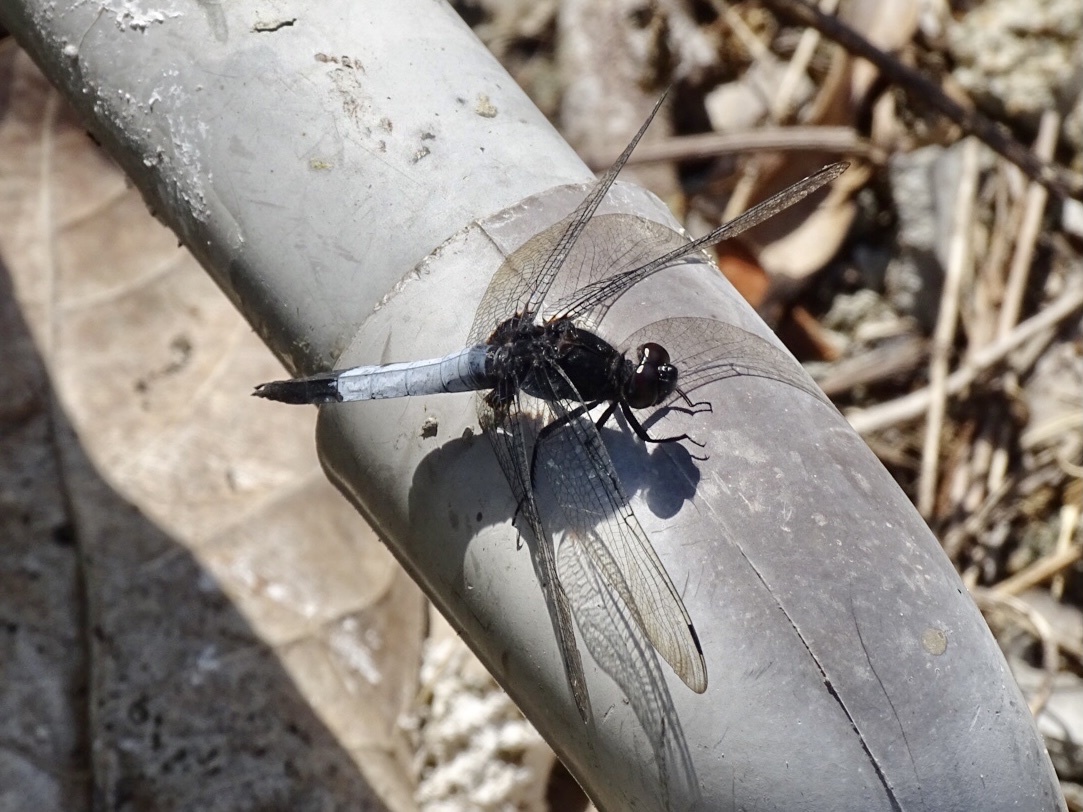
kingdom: Animalia
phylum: Arthropoda
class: Insecta
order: Odonata
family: Libellulidae
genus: Orthetrum
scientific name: Orthetrum triangulare
